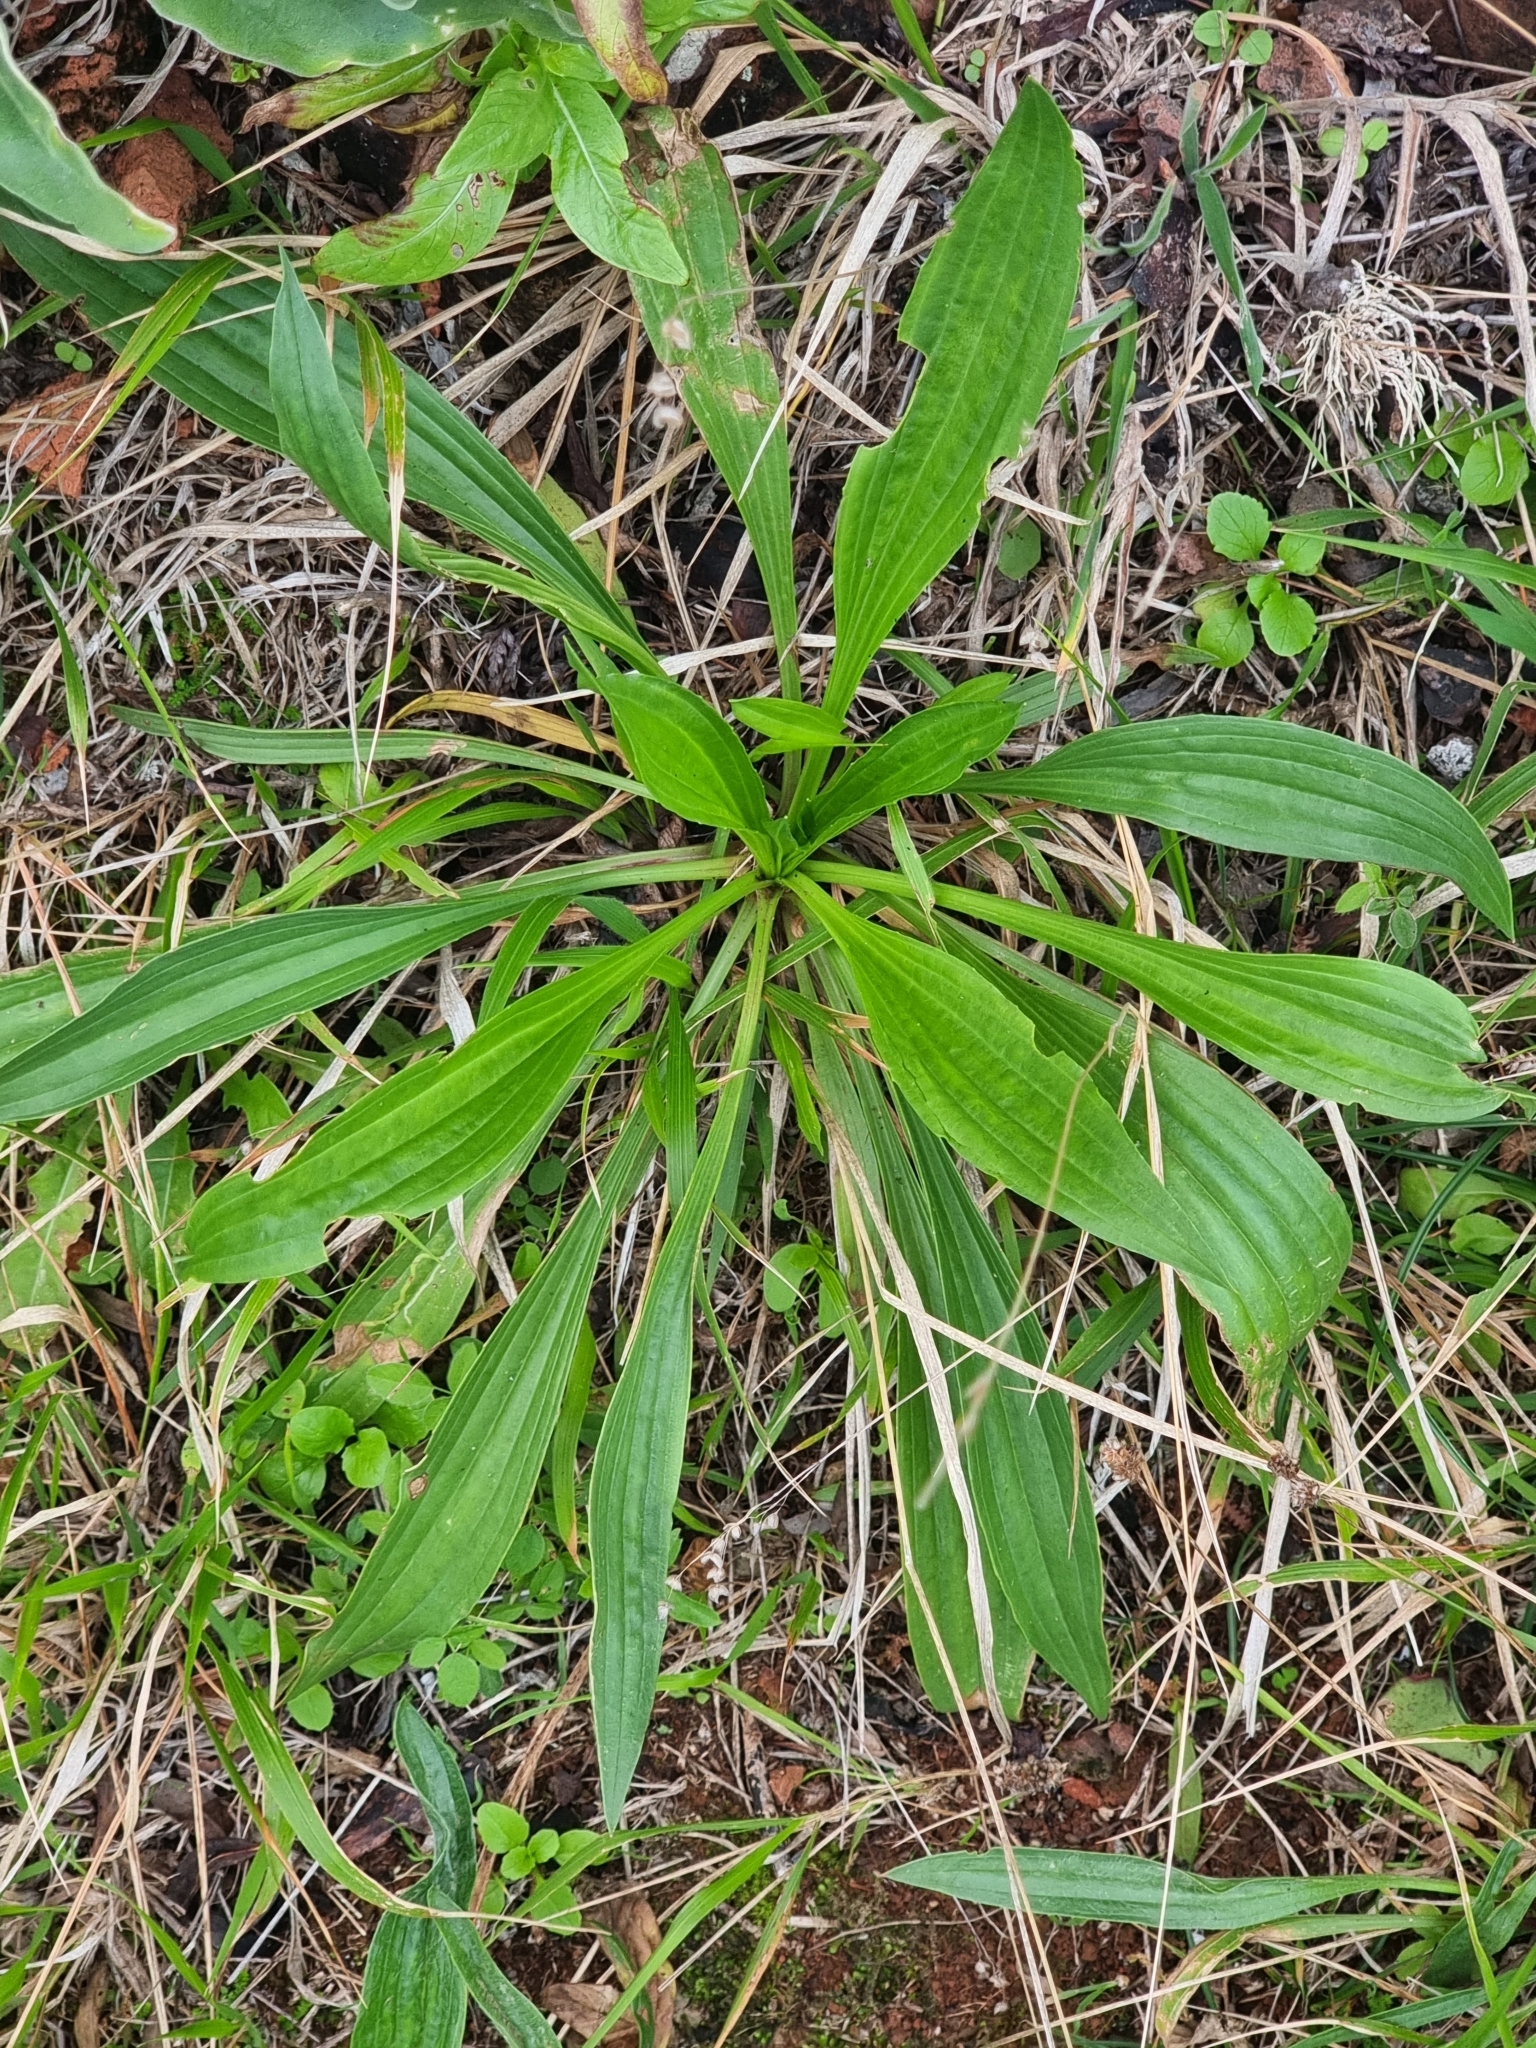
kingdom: Plantae
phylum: Tracheophyta
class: Magnoliopsida
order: Lamiales
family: Plantaginaceae
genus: Plantago
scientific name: Plantago lanceolata
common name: Ribwort plantain
